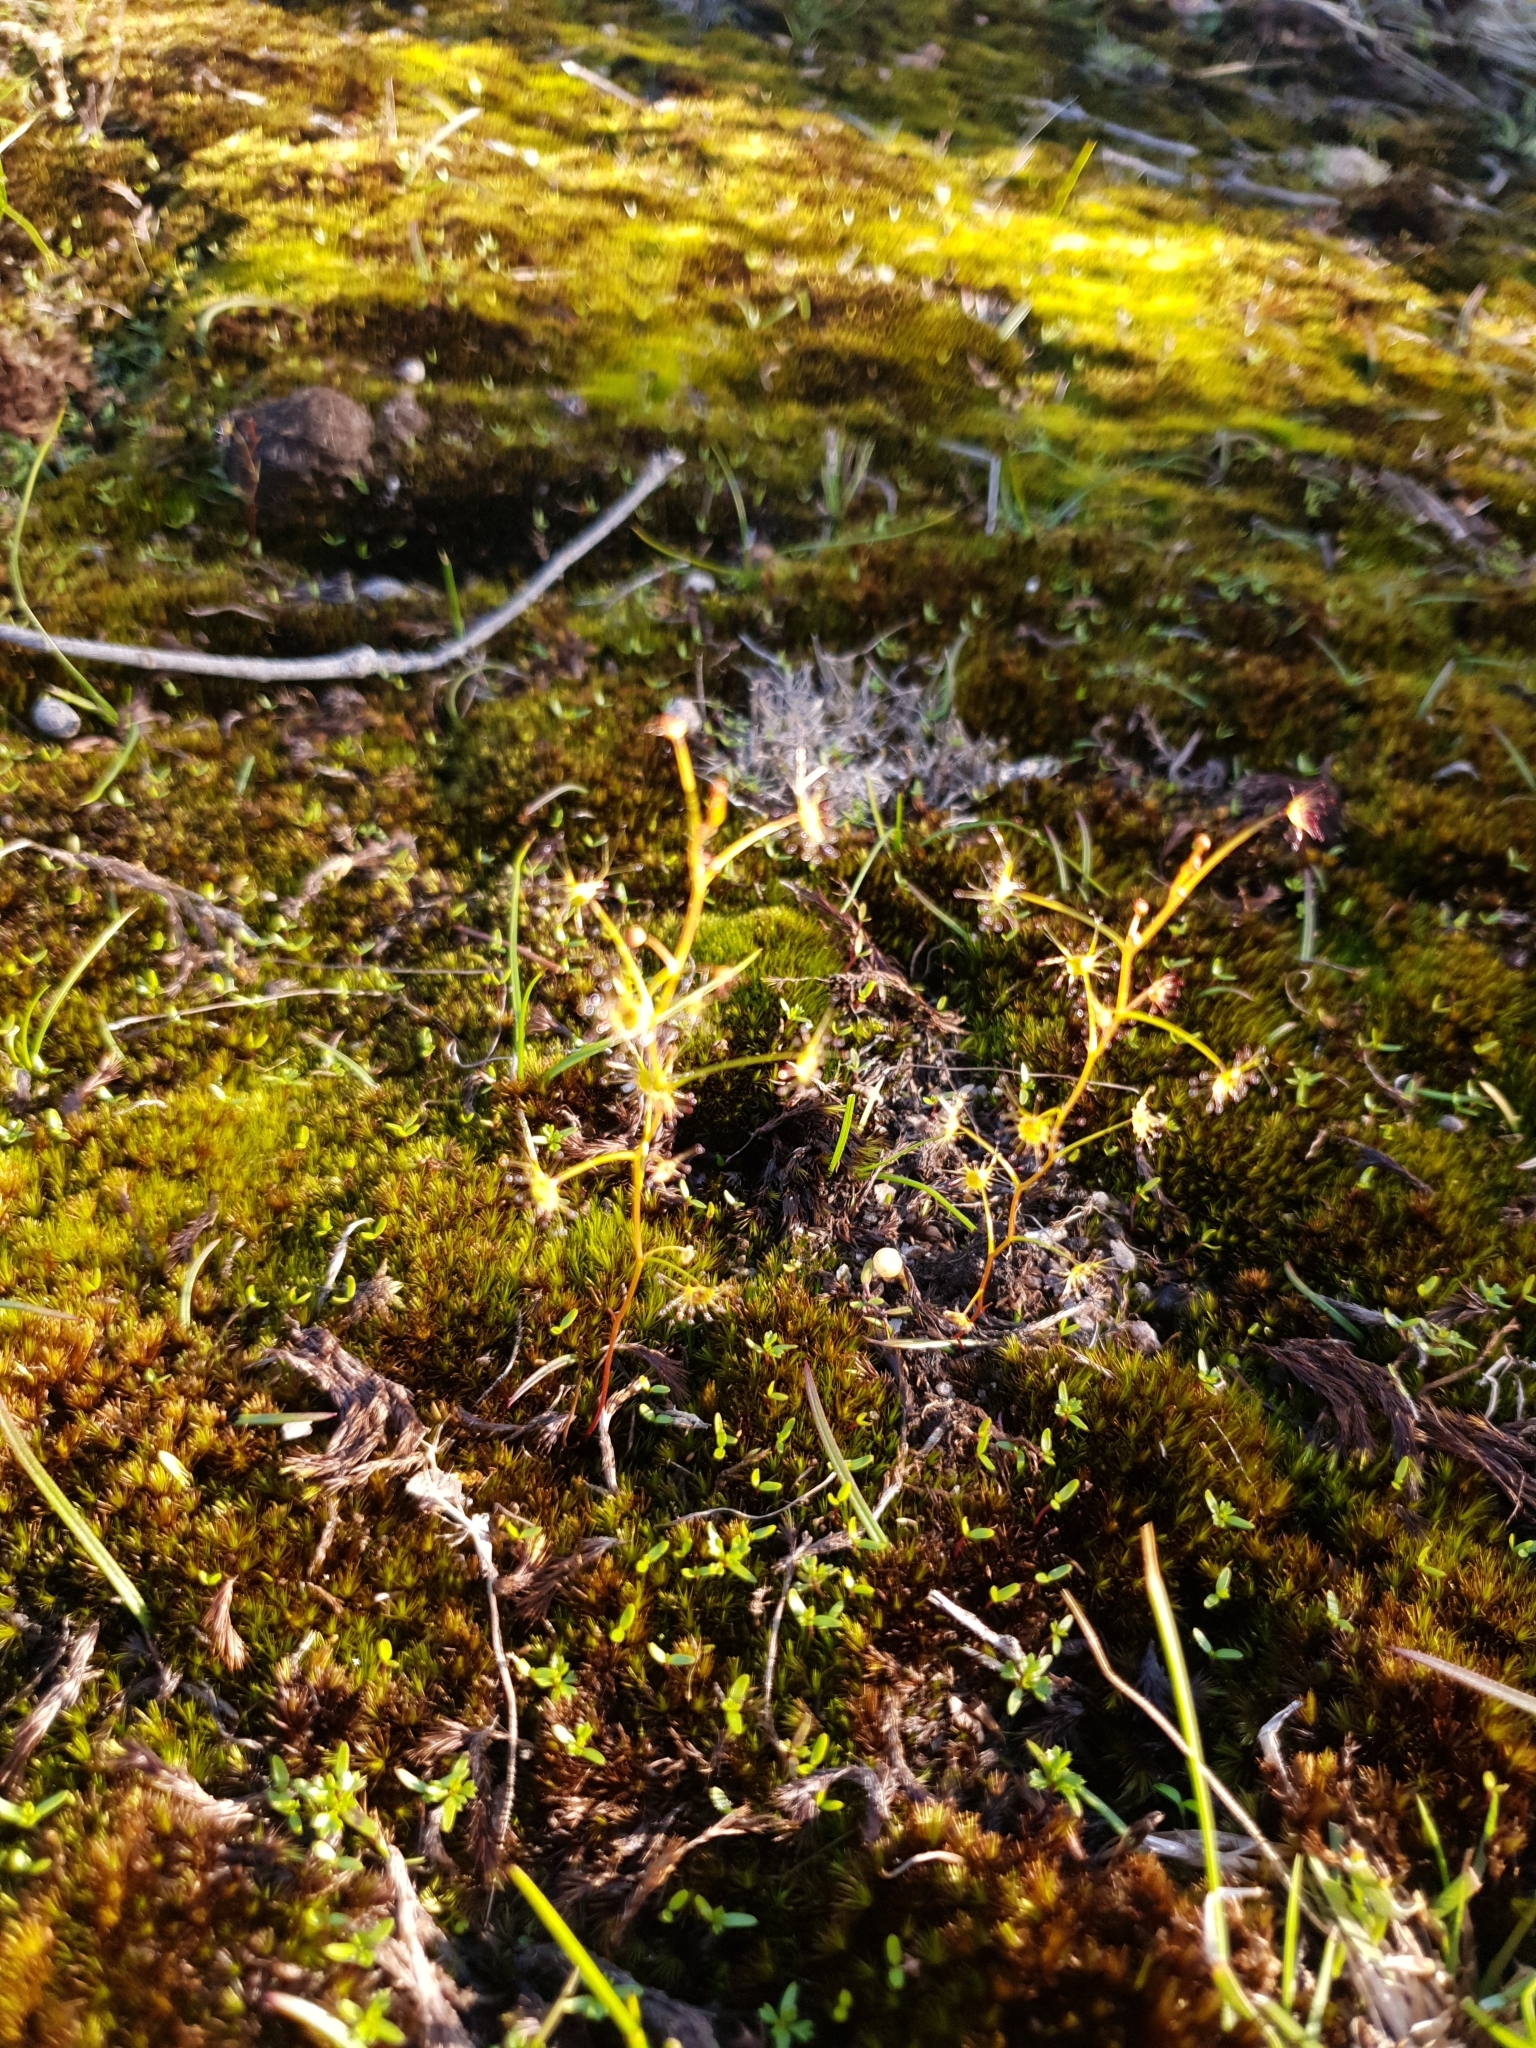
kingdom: Plantae
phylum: Tracheophyta
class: Magnoliopsida
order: Caryophyllales
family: Droseraceae
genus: Drosera
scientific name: Drosera modesta
